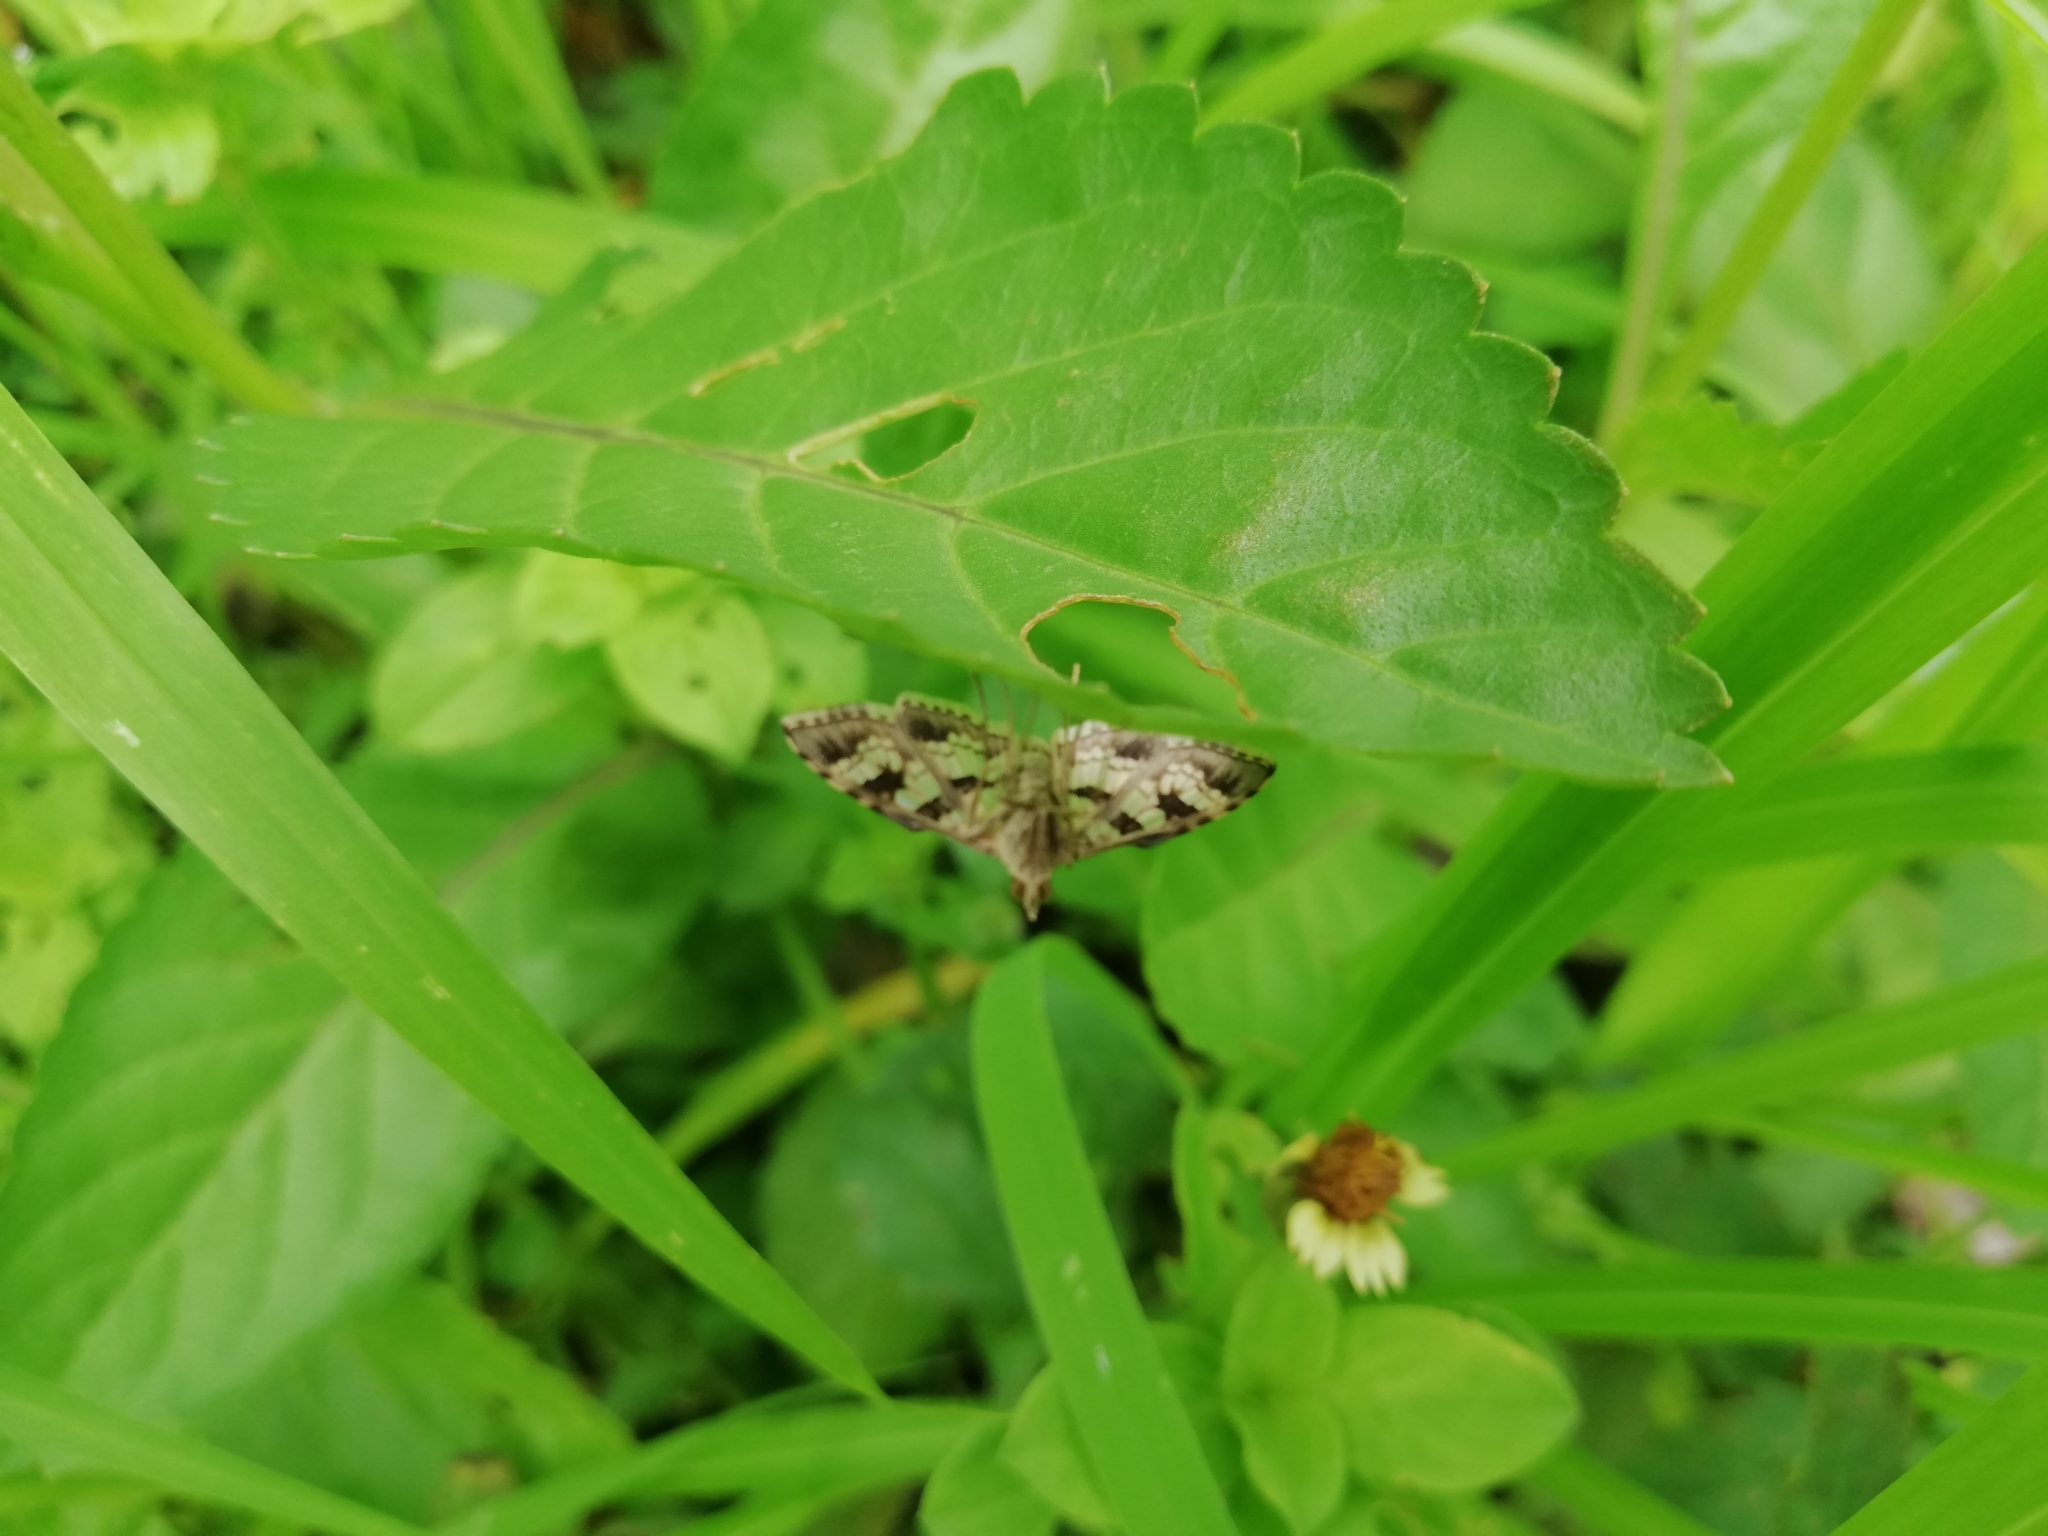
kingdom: Animalia
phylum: Arthropoda
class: Insecta
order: Lepidoptera
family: Crambidae
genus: Sameodes
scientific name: Sameodes cancellalis
